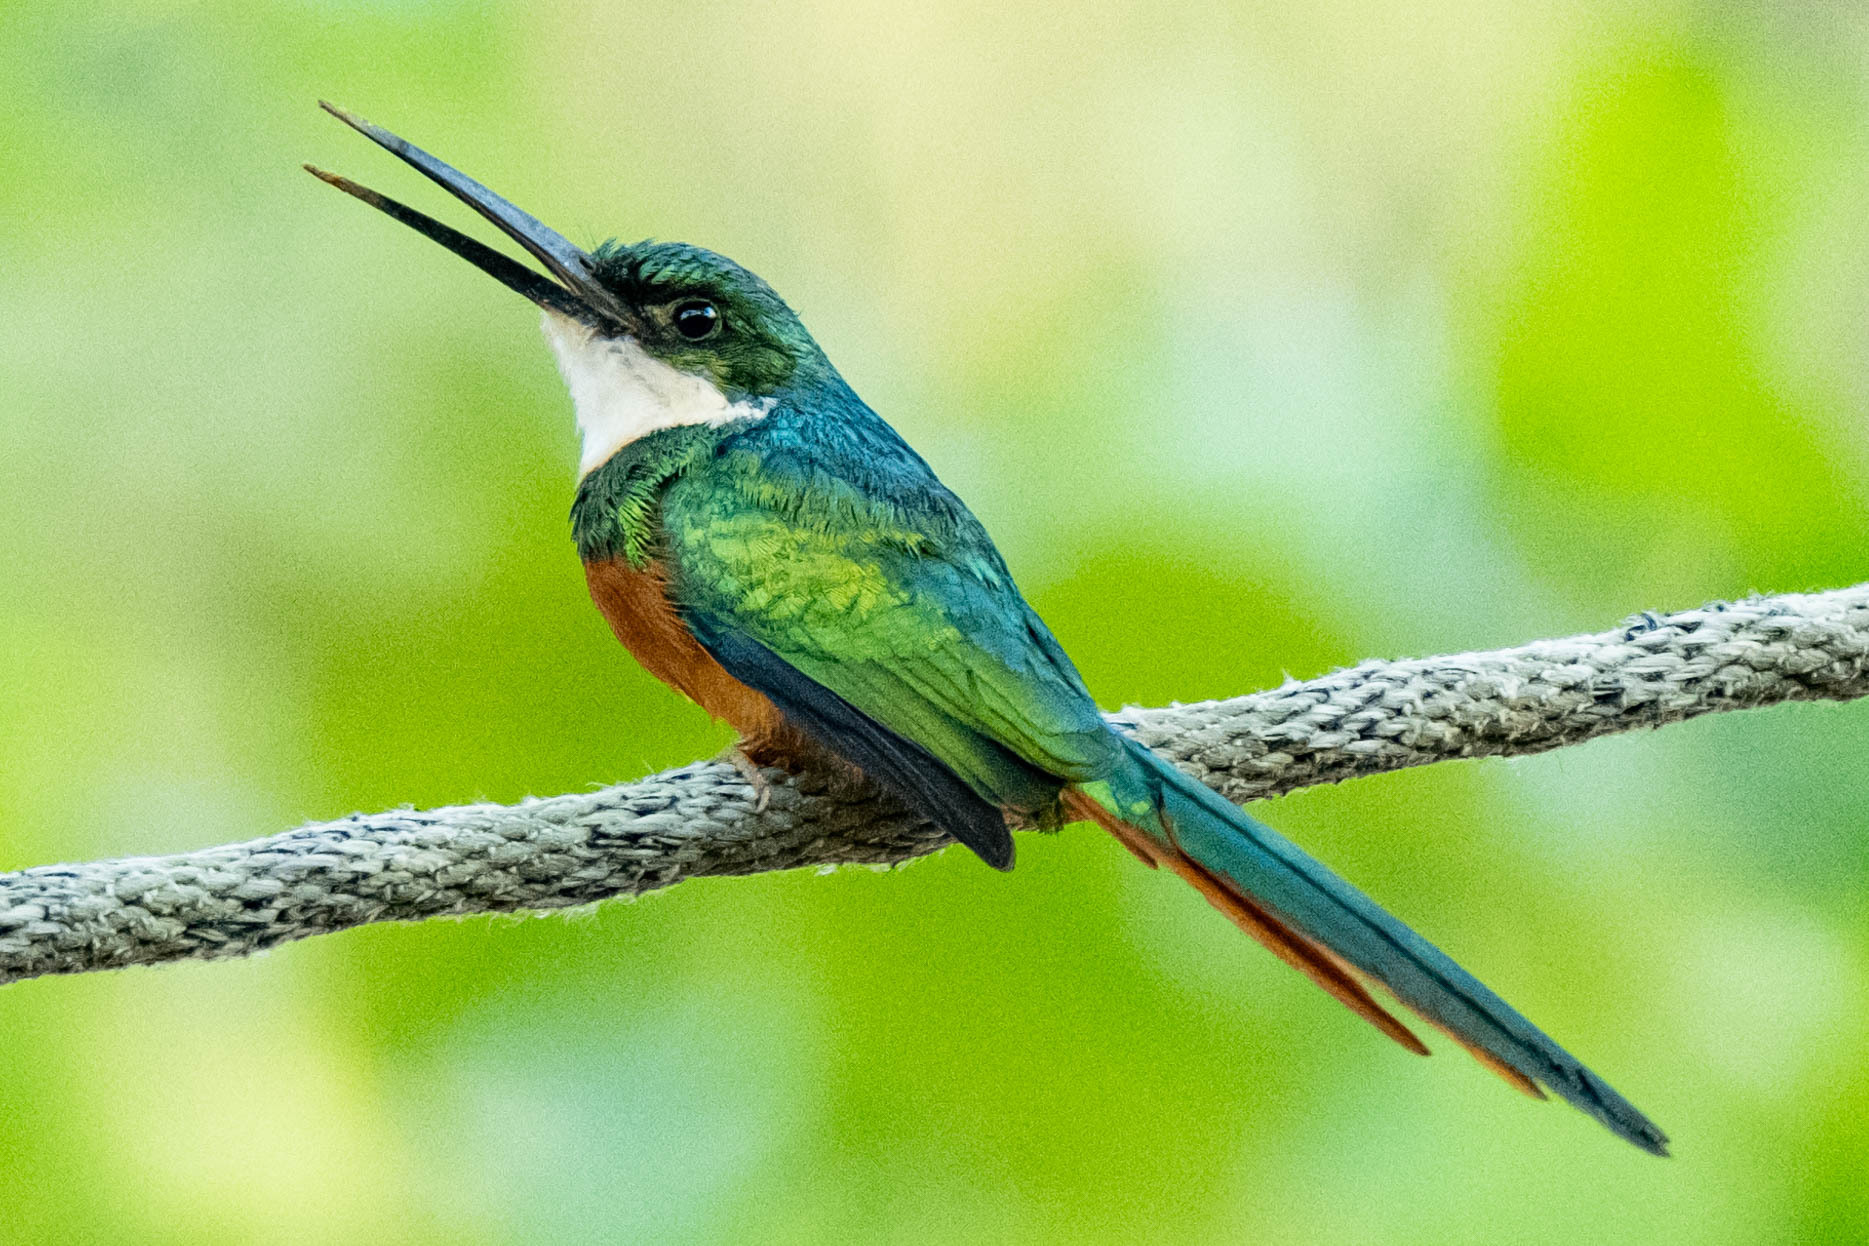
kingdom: Animalia
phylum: Chordata
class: Aves
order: Piciformes
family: Galbulidae
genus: Galbula
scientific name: Galbula ruficauda
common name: Rufous-tailed jacamar
